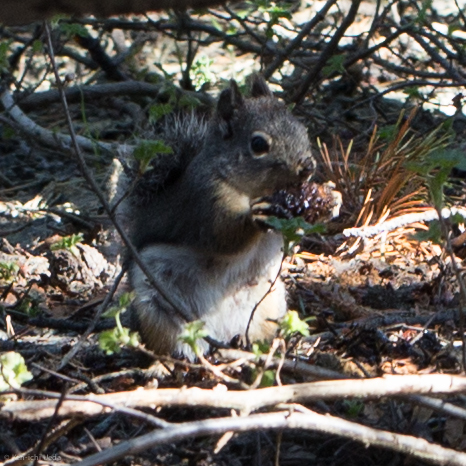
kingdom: Animalia
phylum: Chordata
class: Mammalia
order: Rodentia
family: Sciuridae
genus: Tamiasciurus
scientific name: Tamiasciurus douglasii
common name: Douglas's squirrel
